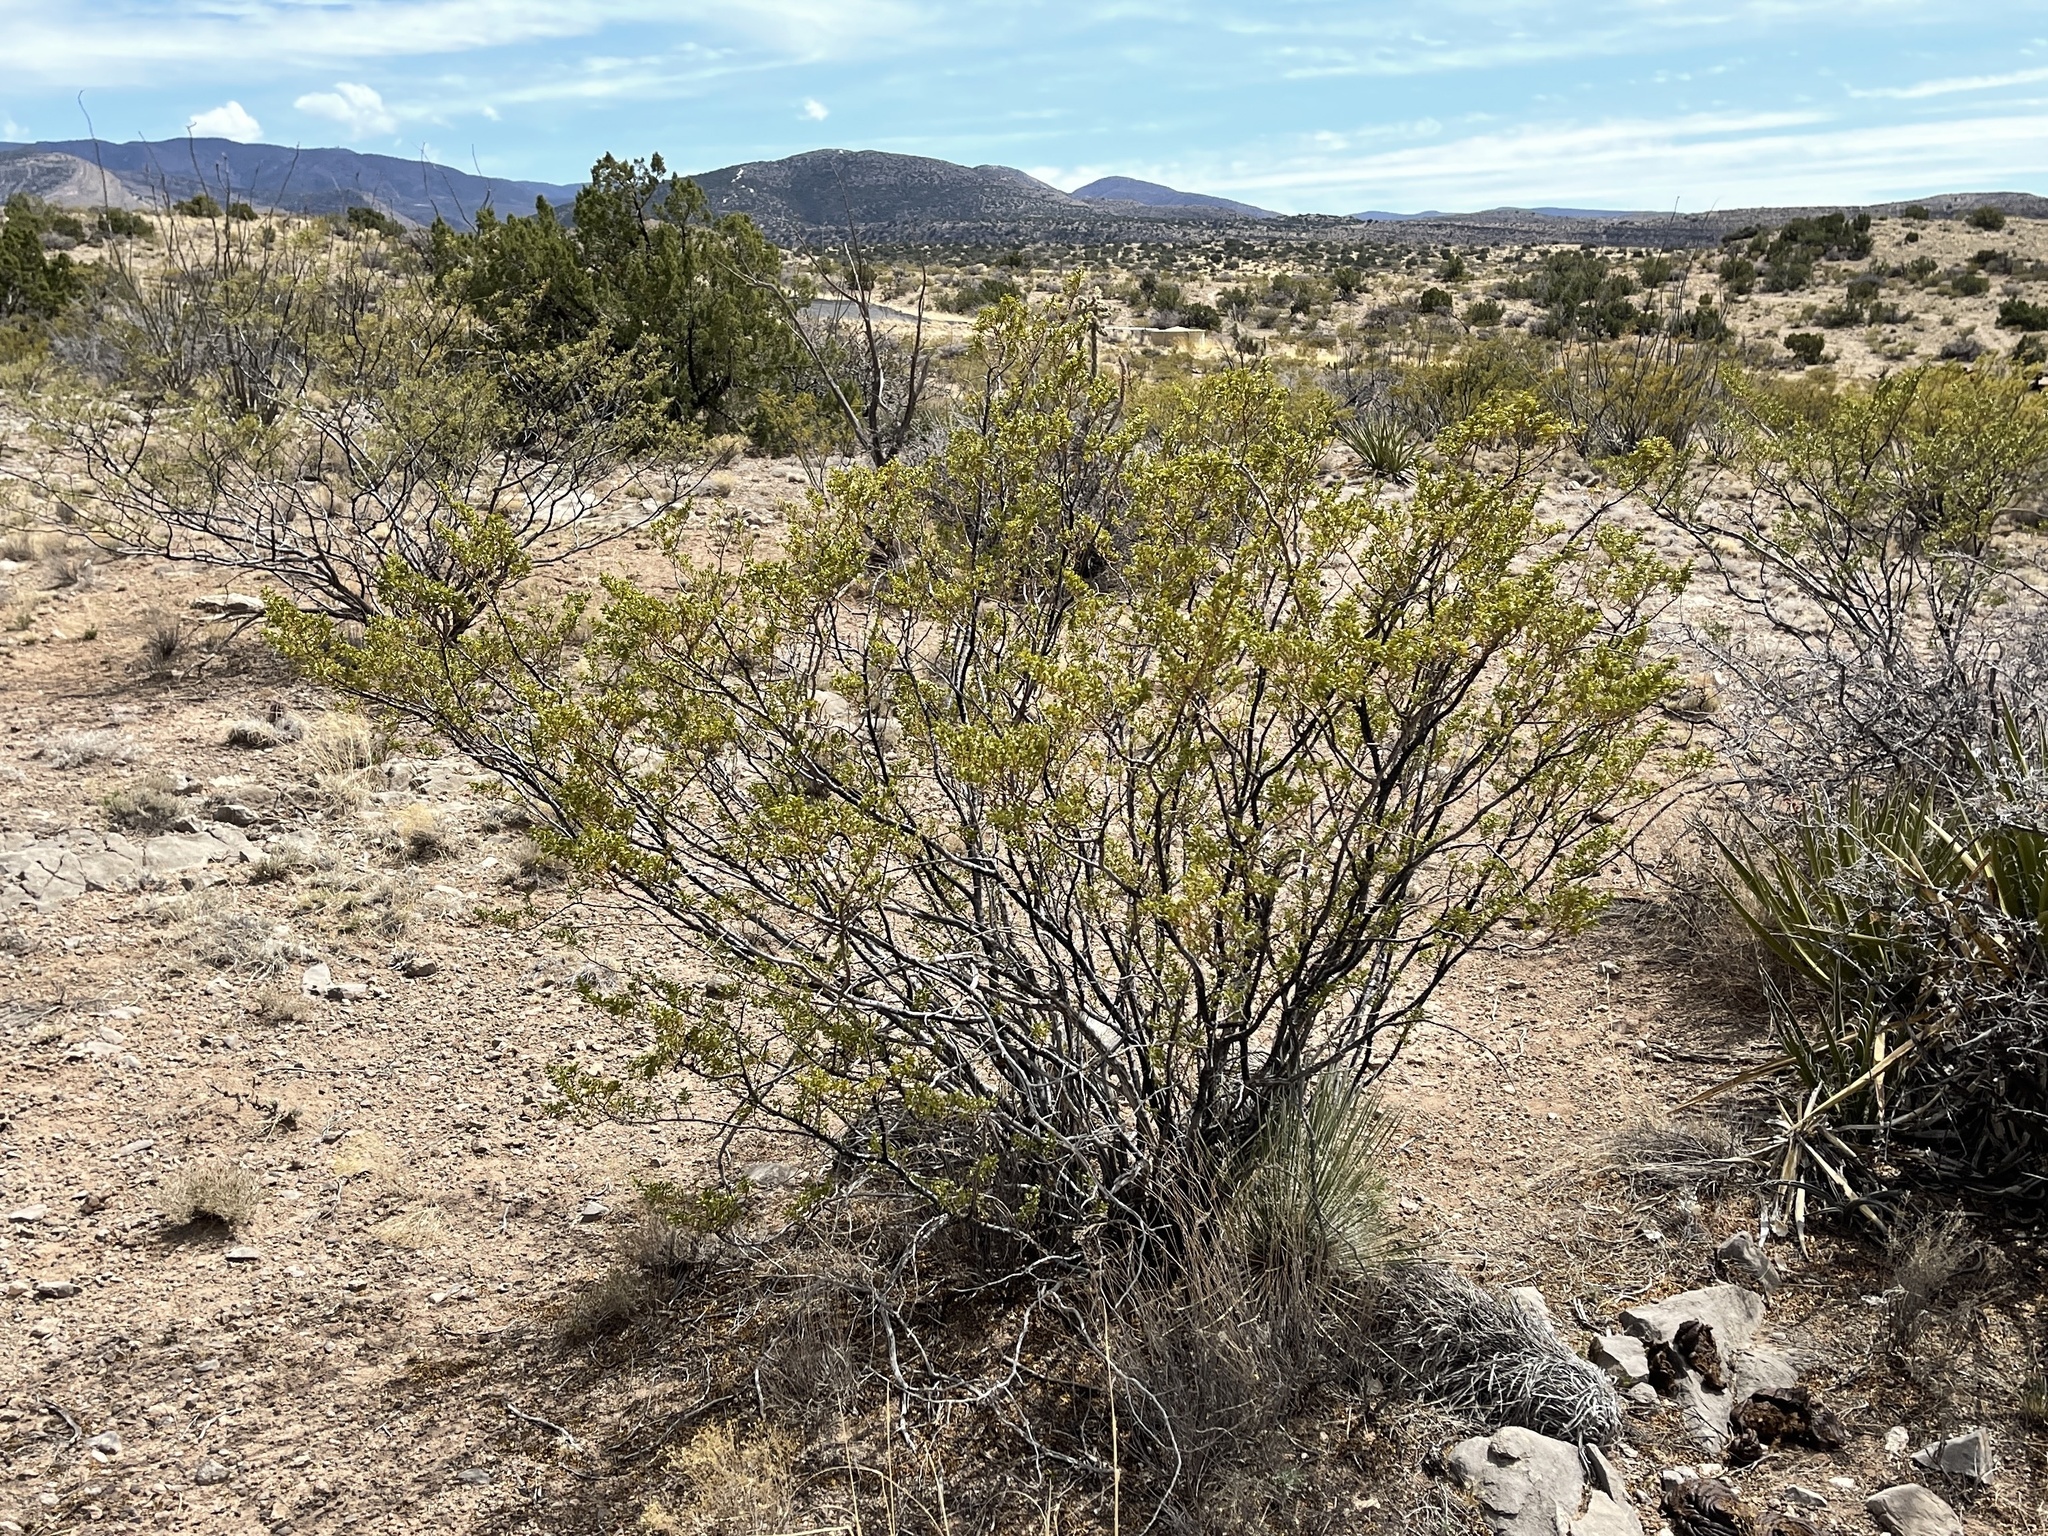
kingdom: Plantae
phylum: Tracheophyta
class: Magnoliopsida
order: Zygophyllales
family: Zygophyllaceae
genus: Larrea
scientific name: Larrea tridentata
